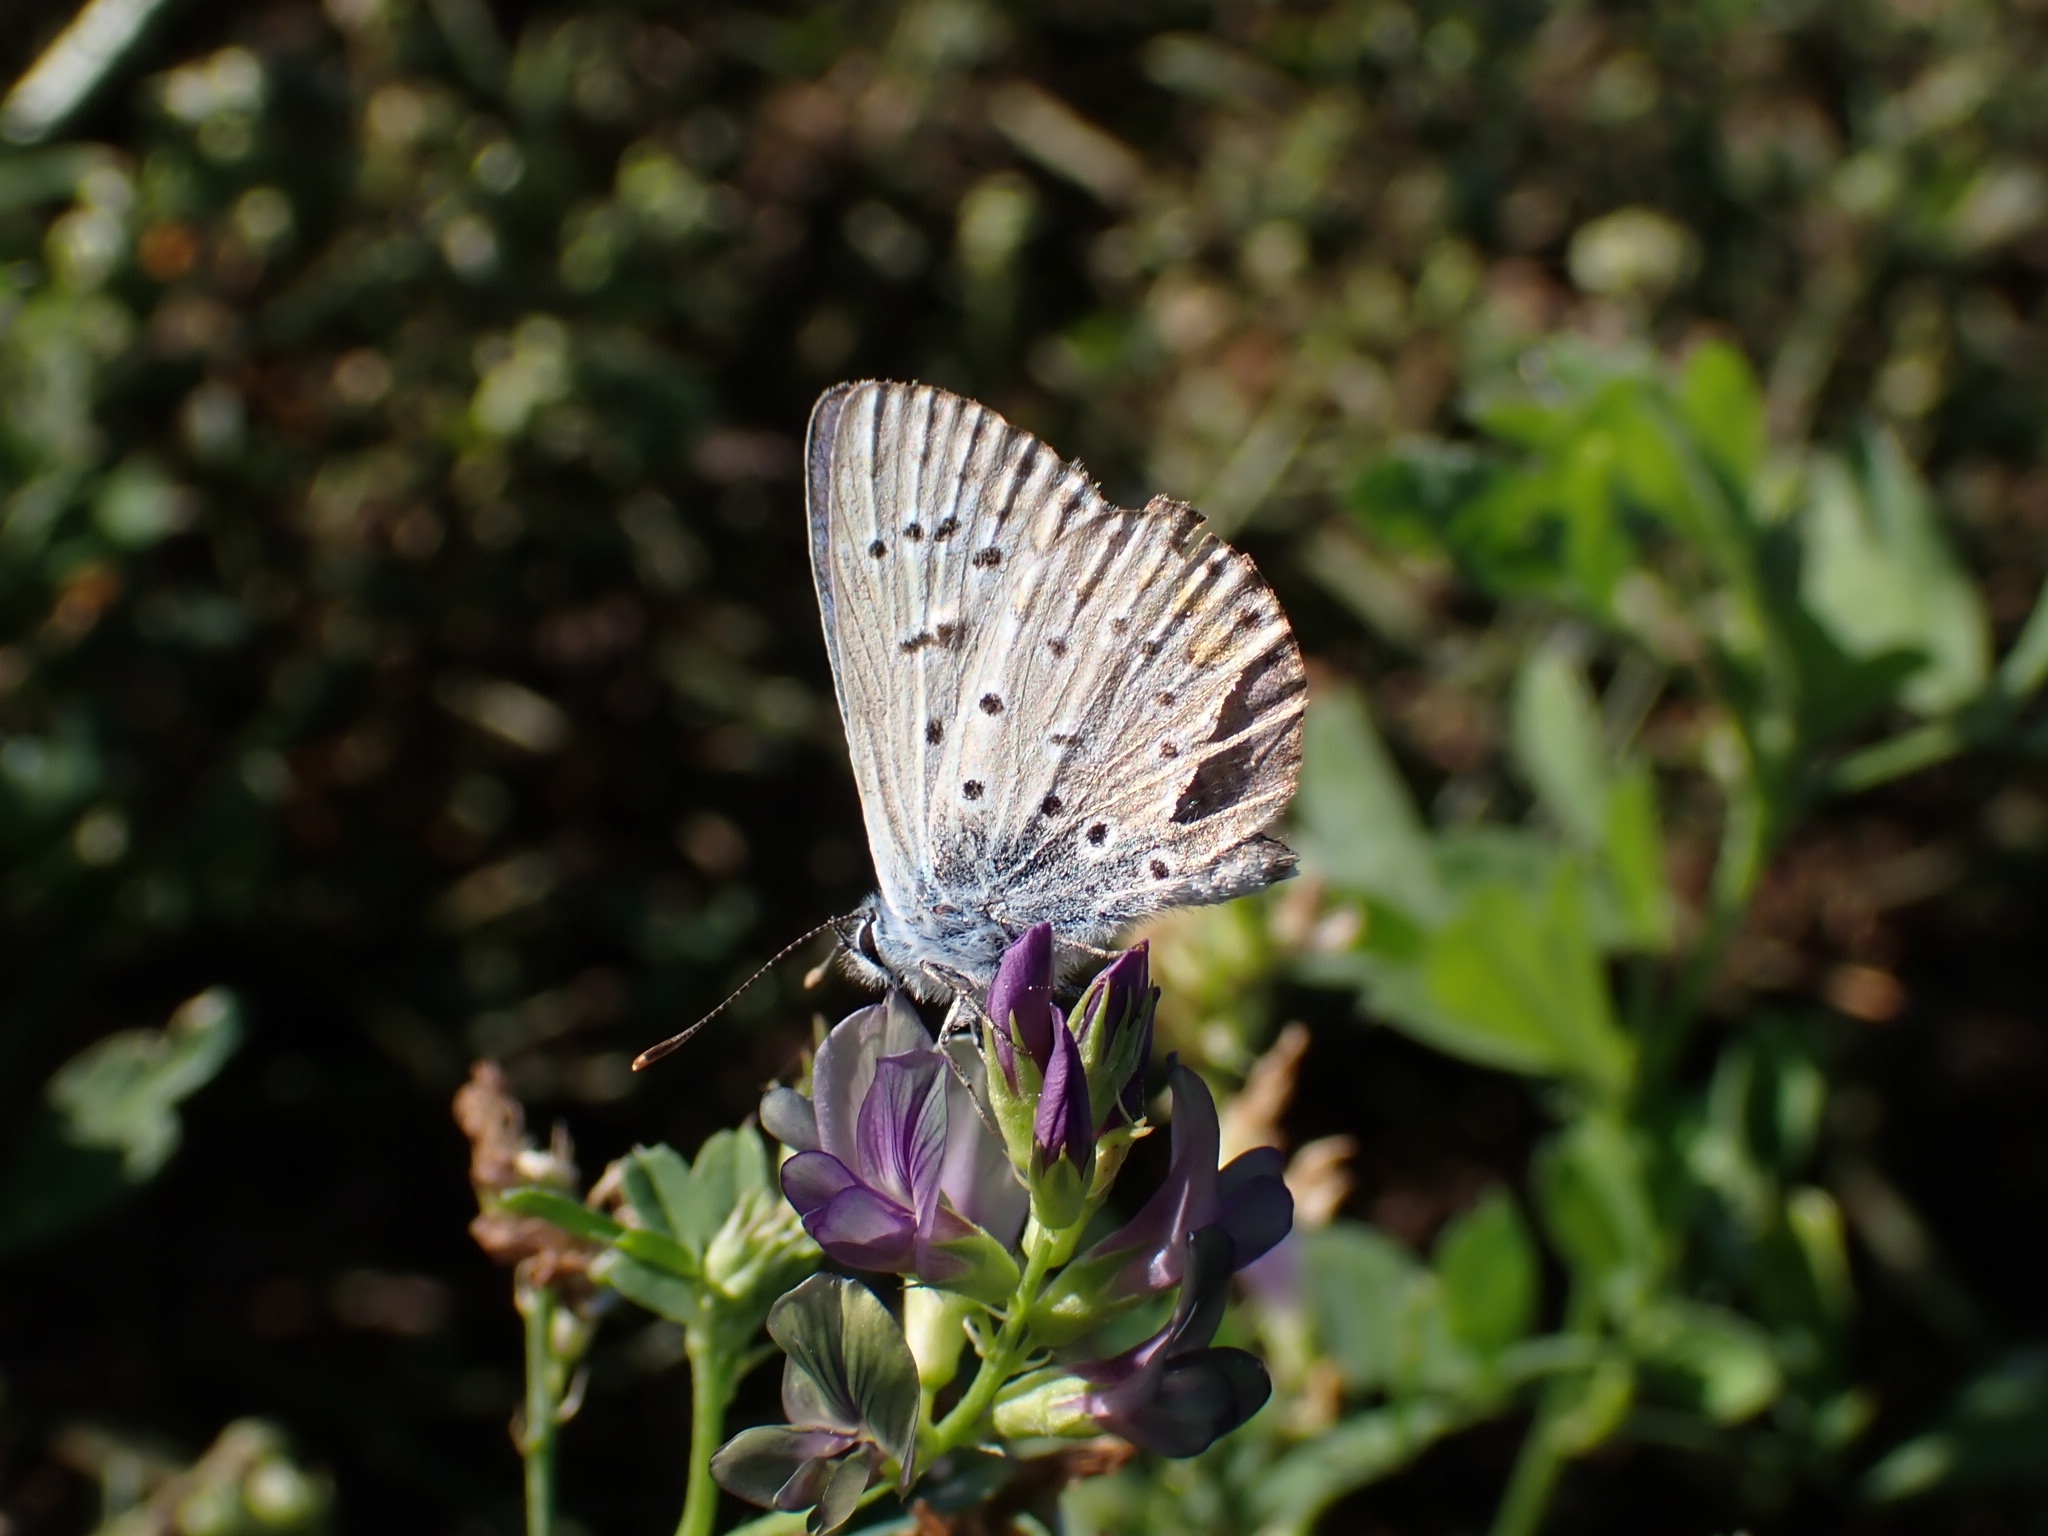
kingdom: Animalia
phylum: Arthropoda
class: Insecta
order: Lepidoptera
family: Lycaenidae
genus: Polyommatus
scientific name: Polyommatus icarus
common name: Common blue
